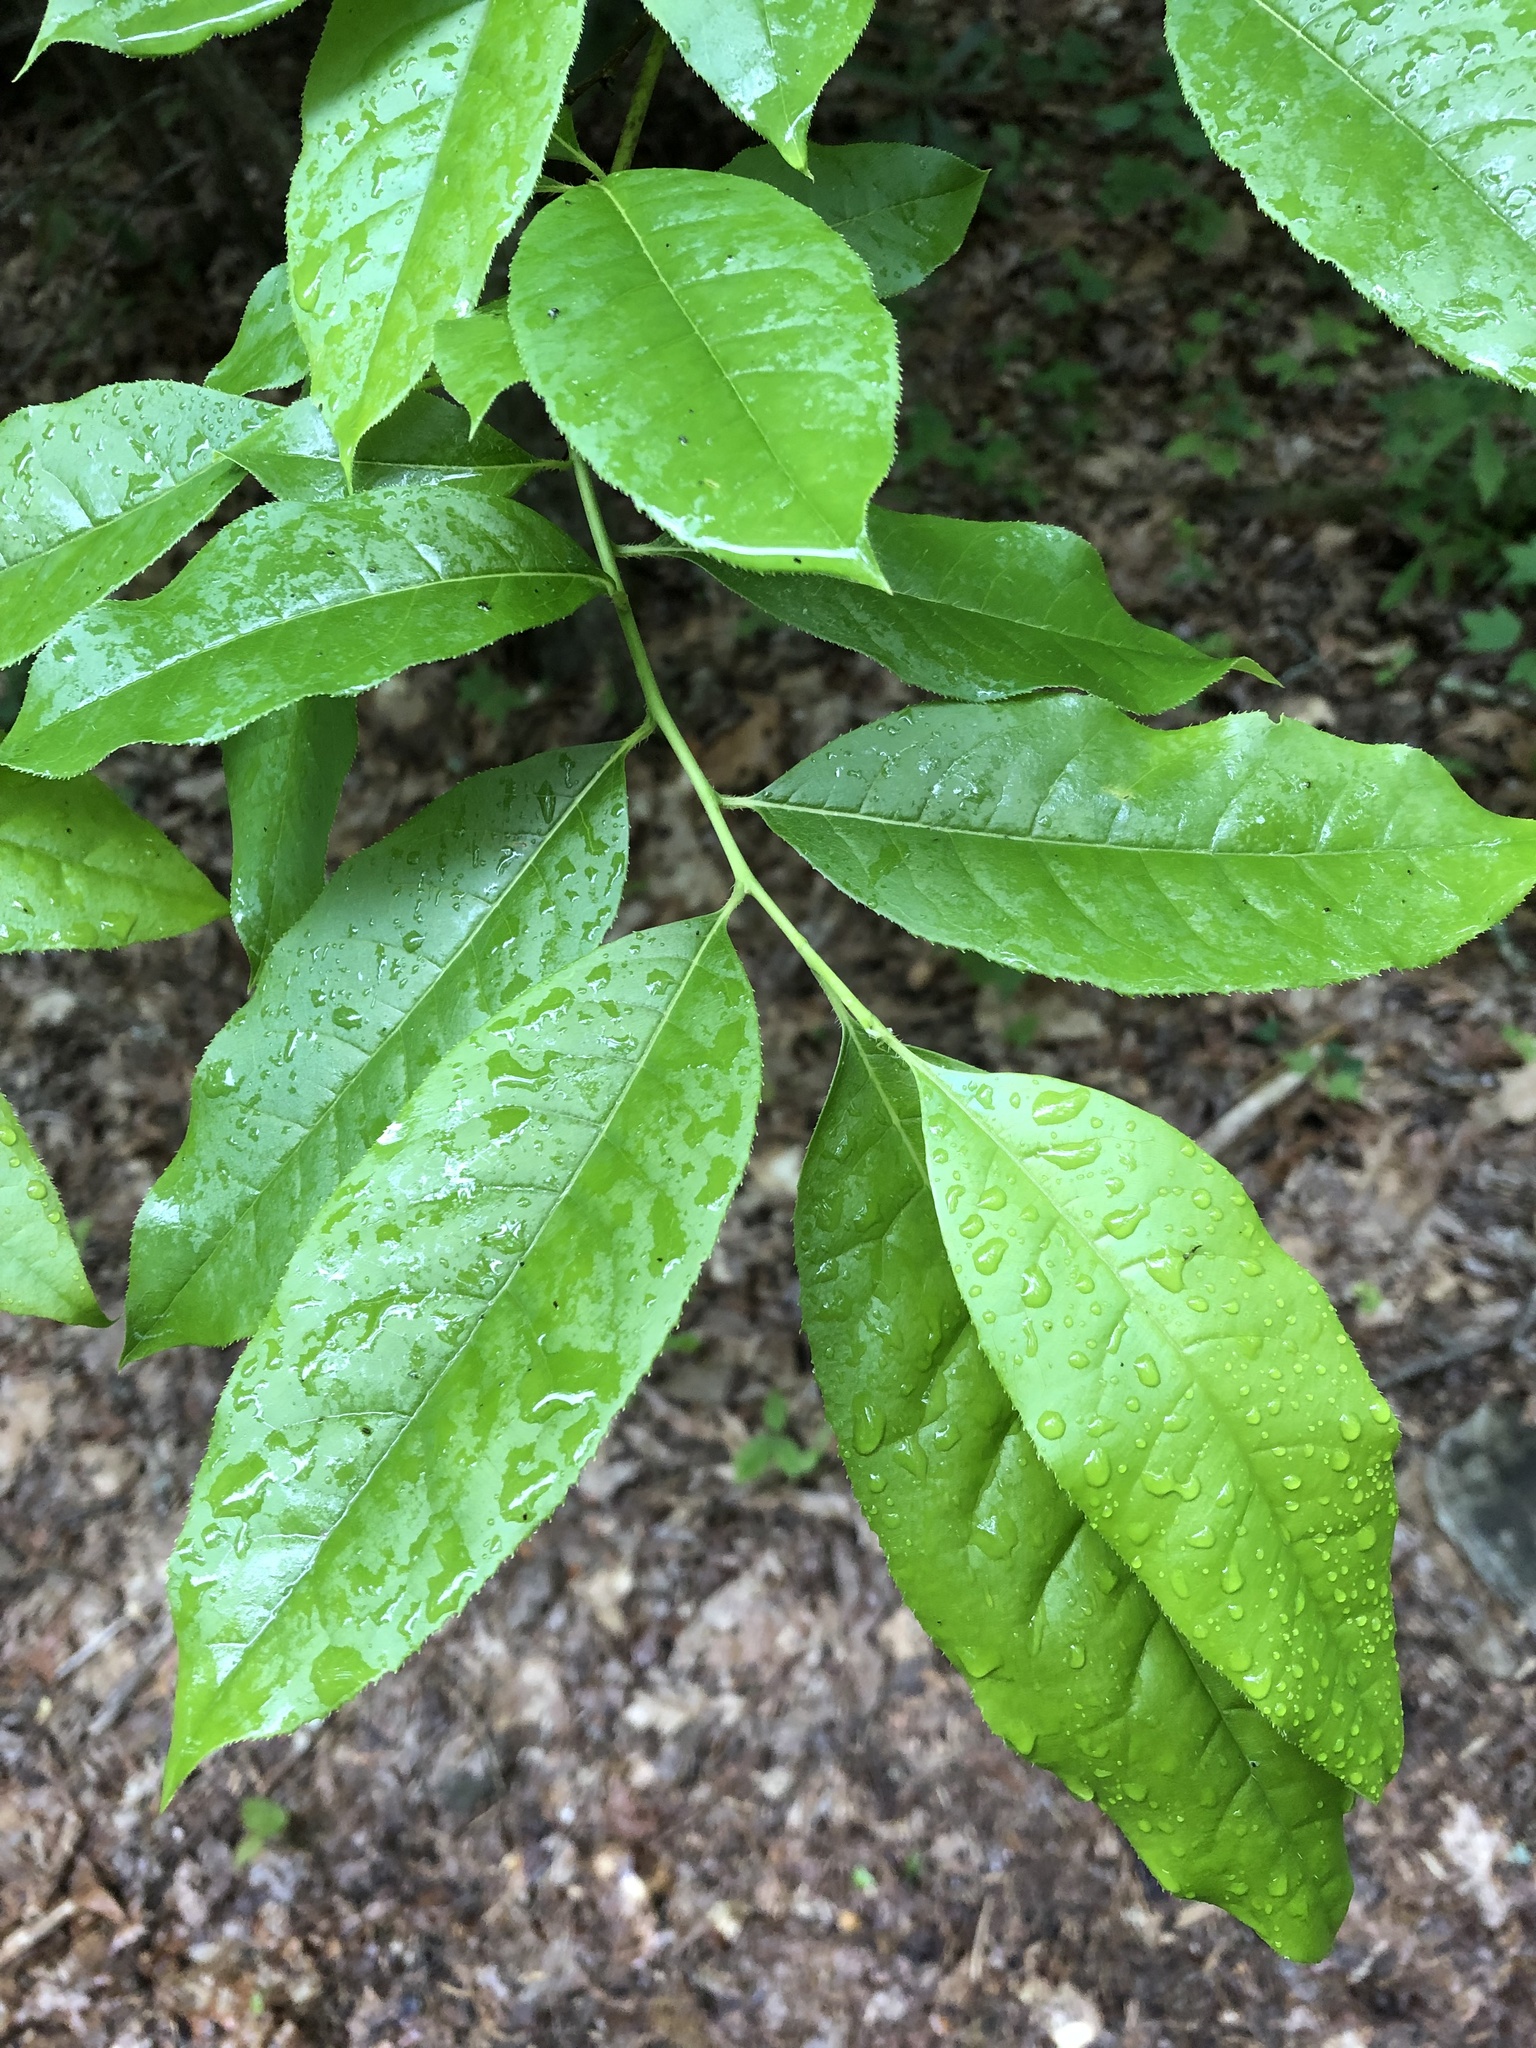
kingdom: Plantae
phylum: Tracheophyta
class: Magnoliopsida
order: Ericales
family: Ericaceae
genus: Oxydendrum
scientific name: Oxydendrum arboreum
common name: Sourwood
